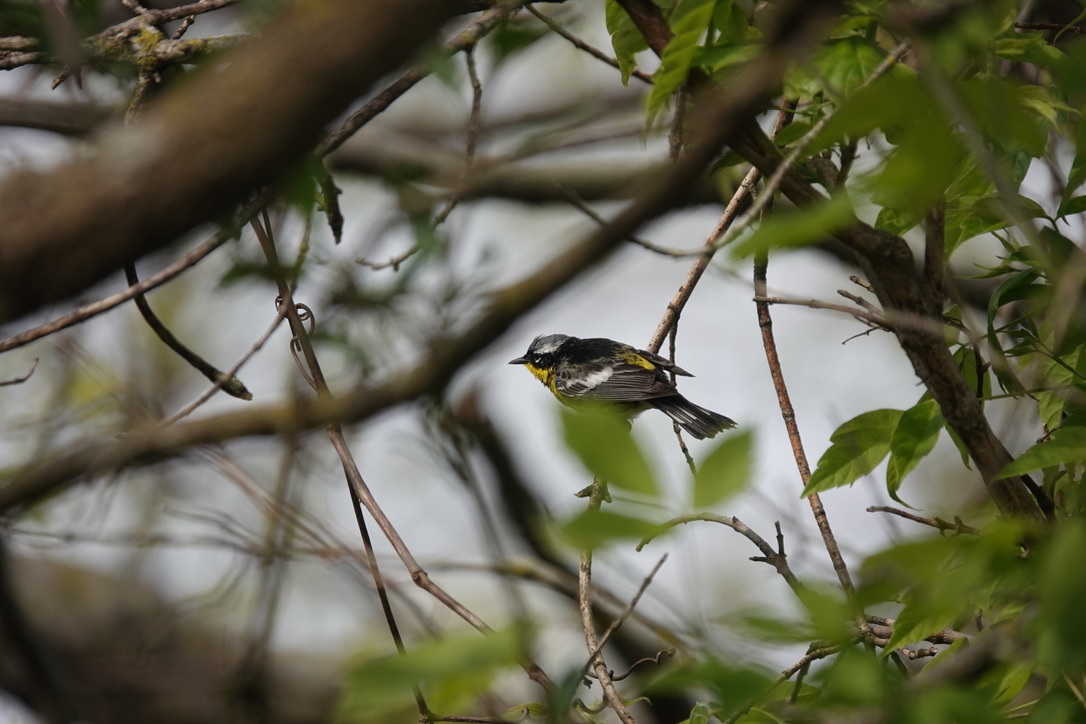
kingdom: Animalia
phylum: Chordata
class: Aves
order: Passeriformes
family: Parulidae
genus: Setophaga
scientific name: Setophaga magnolia
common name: Magnolia warbler
